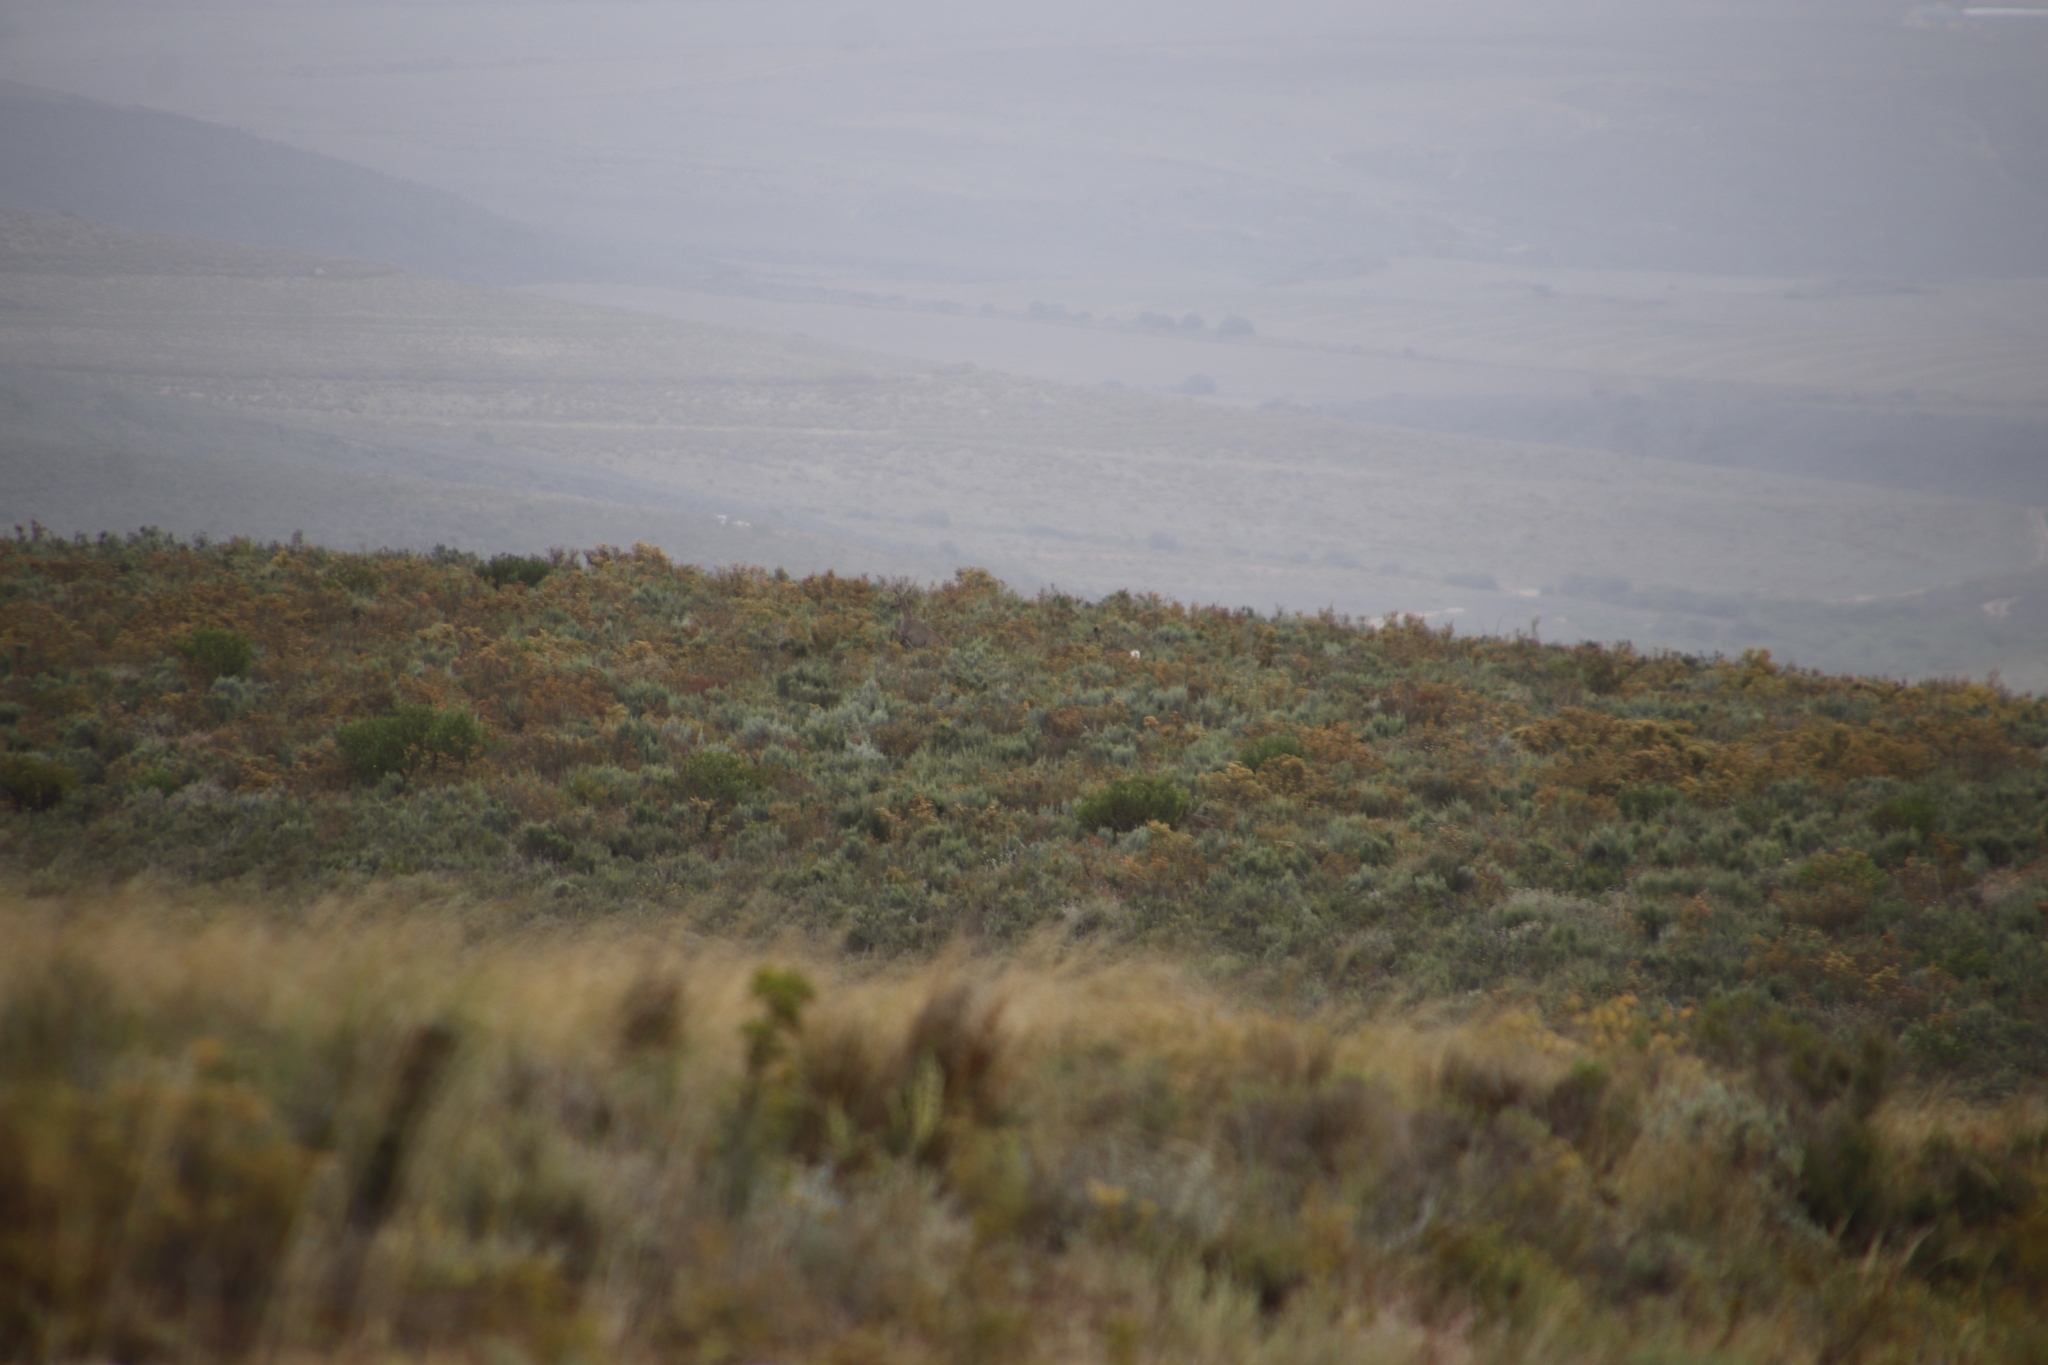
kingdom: Animalia
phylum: Chordata
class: Mammalia
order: Artiodactyla
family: Bovidae
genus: Pelea
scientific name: Pelea capreolus
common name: Common rhebok
